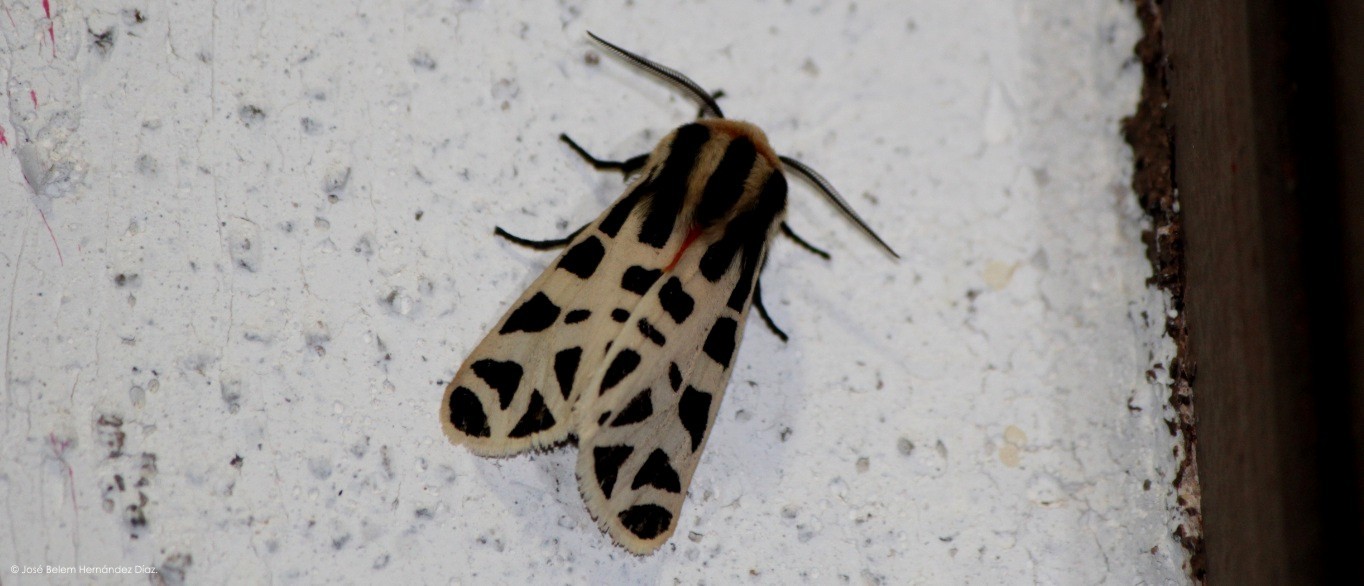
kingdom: Animalia
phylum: Arthropoda
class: Insecta
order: Lepidoptera
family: Erebidae
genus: Apantesis
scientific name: Apantesis
